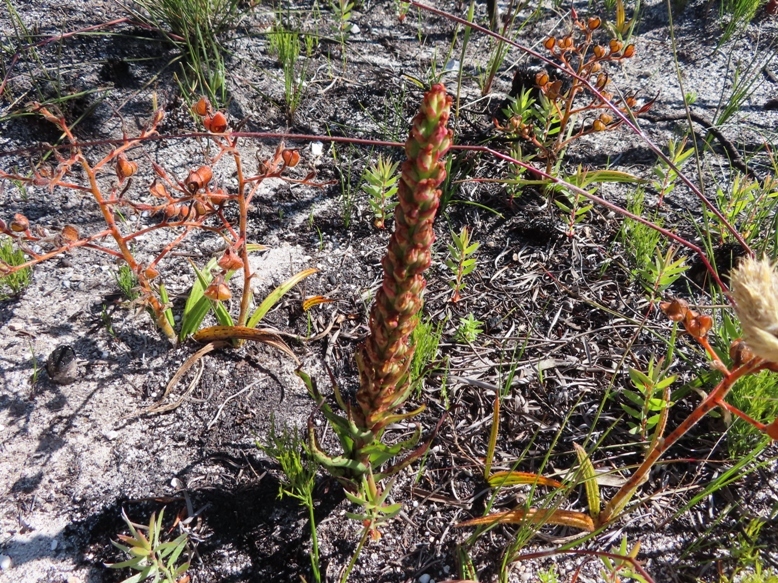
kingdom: Plantae
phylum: Tracheophyta
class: Liliopsida
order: Asparagales
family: Orchidaceae
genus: Disa
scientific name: Disa bracteata
